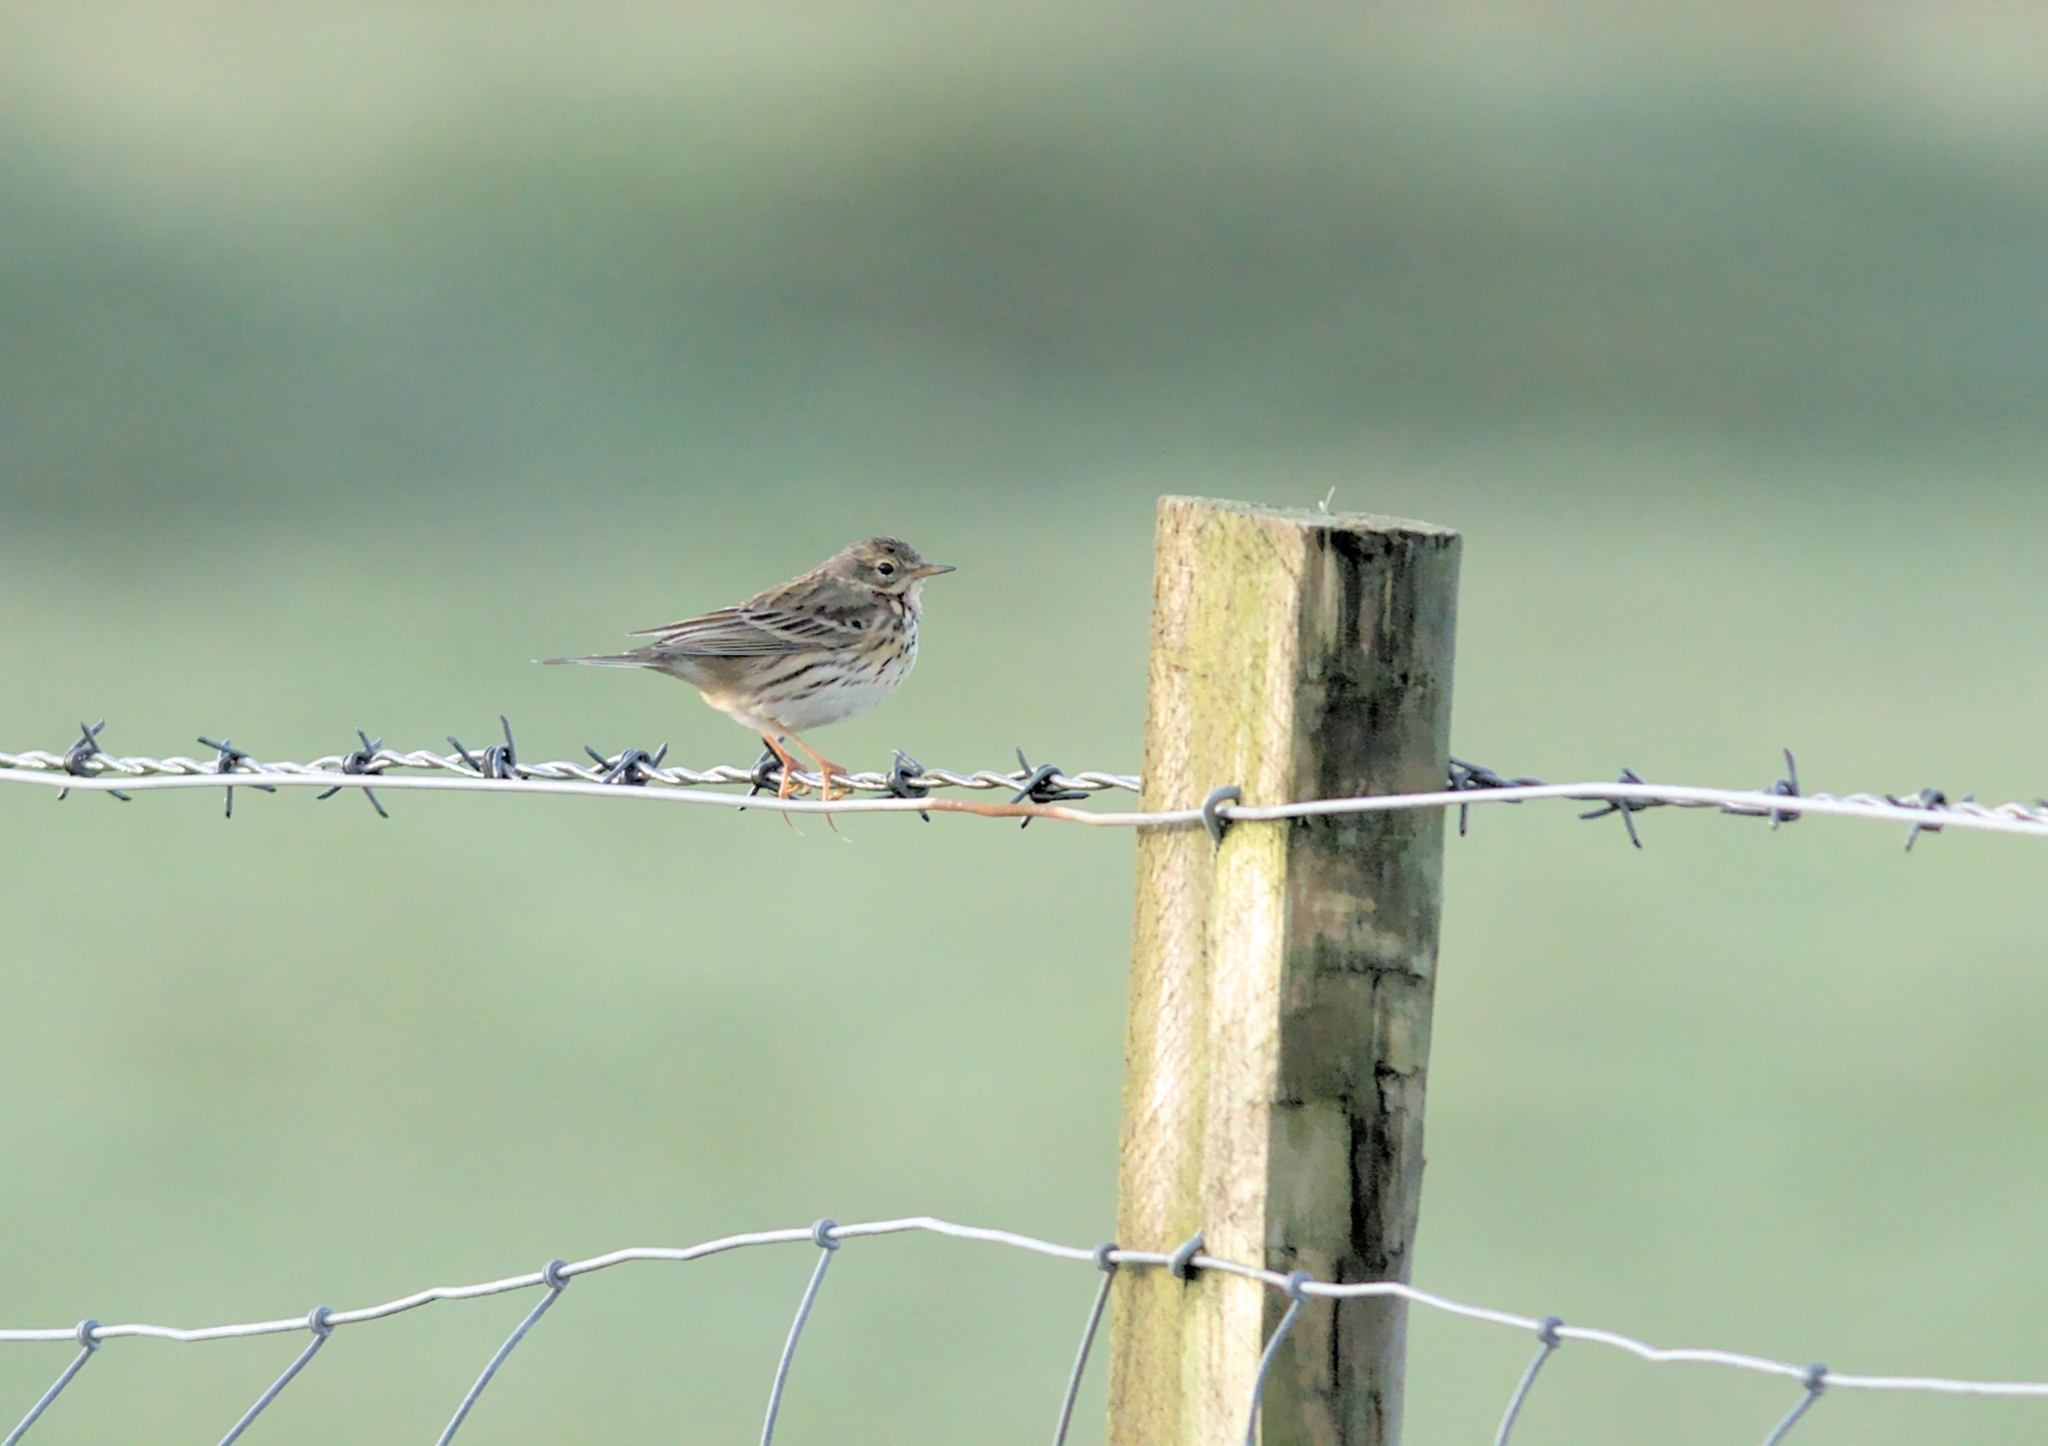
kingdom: Animalia
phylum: Chordata
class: Aves
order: Passeriformes
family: Motacillidae
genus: Anthus
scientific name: Anthus pratensis
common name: Meadow pipit
